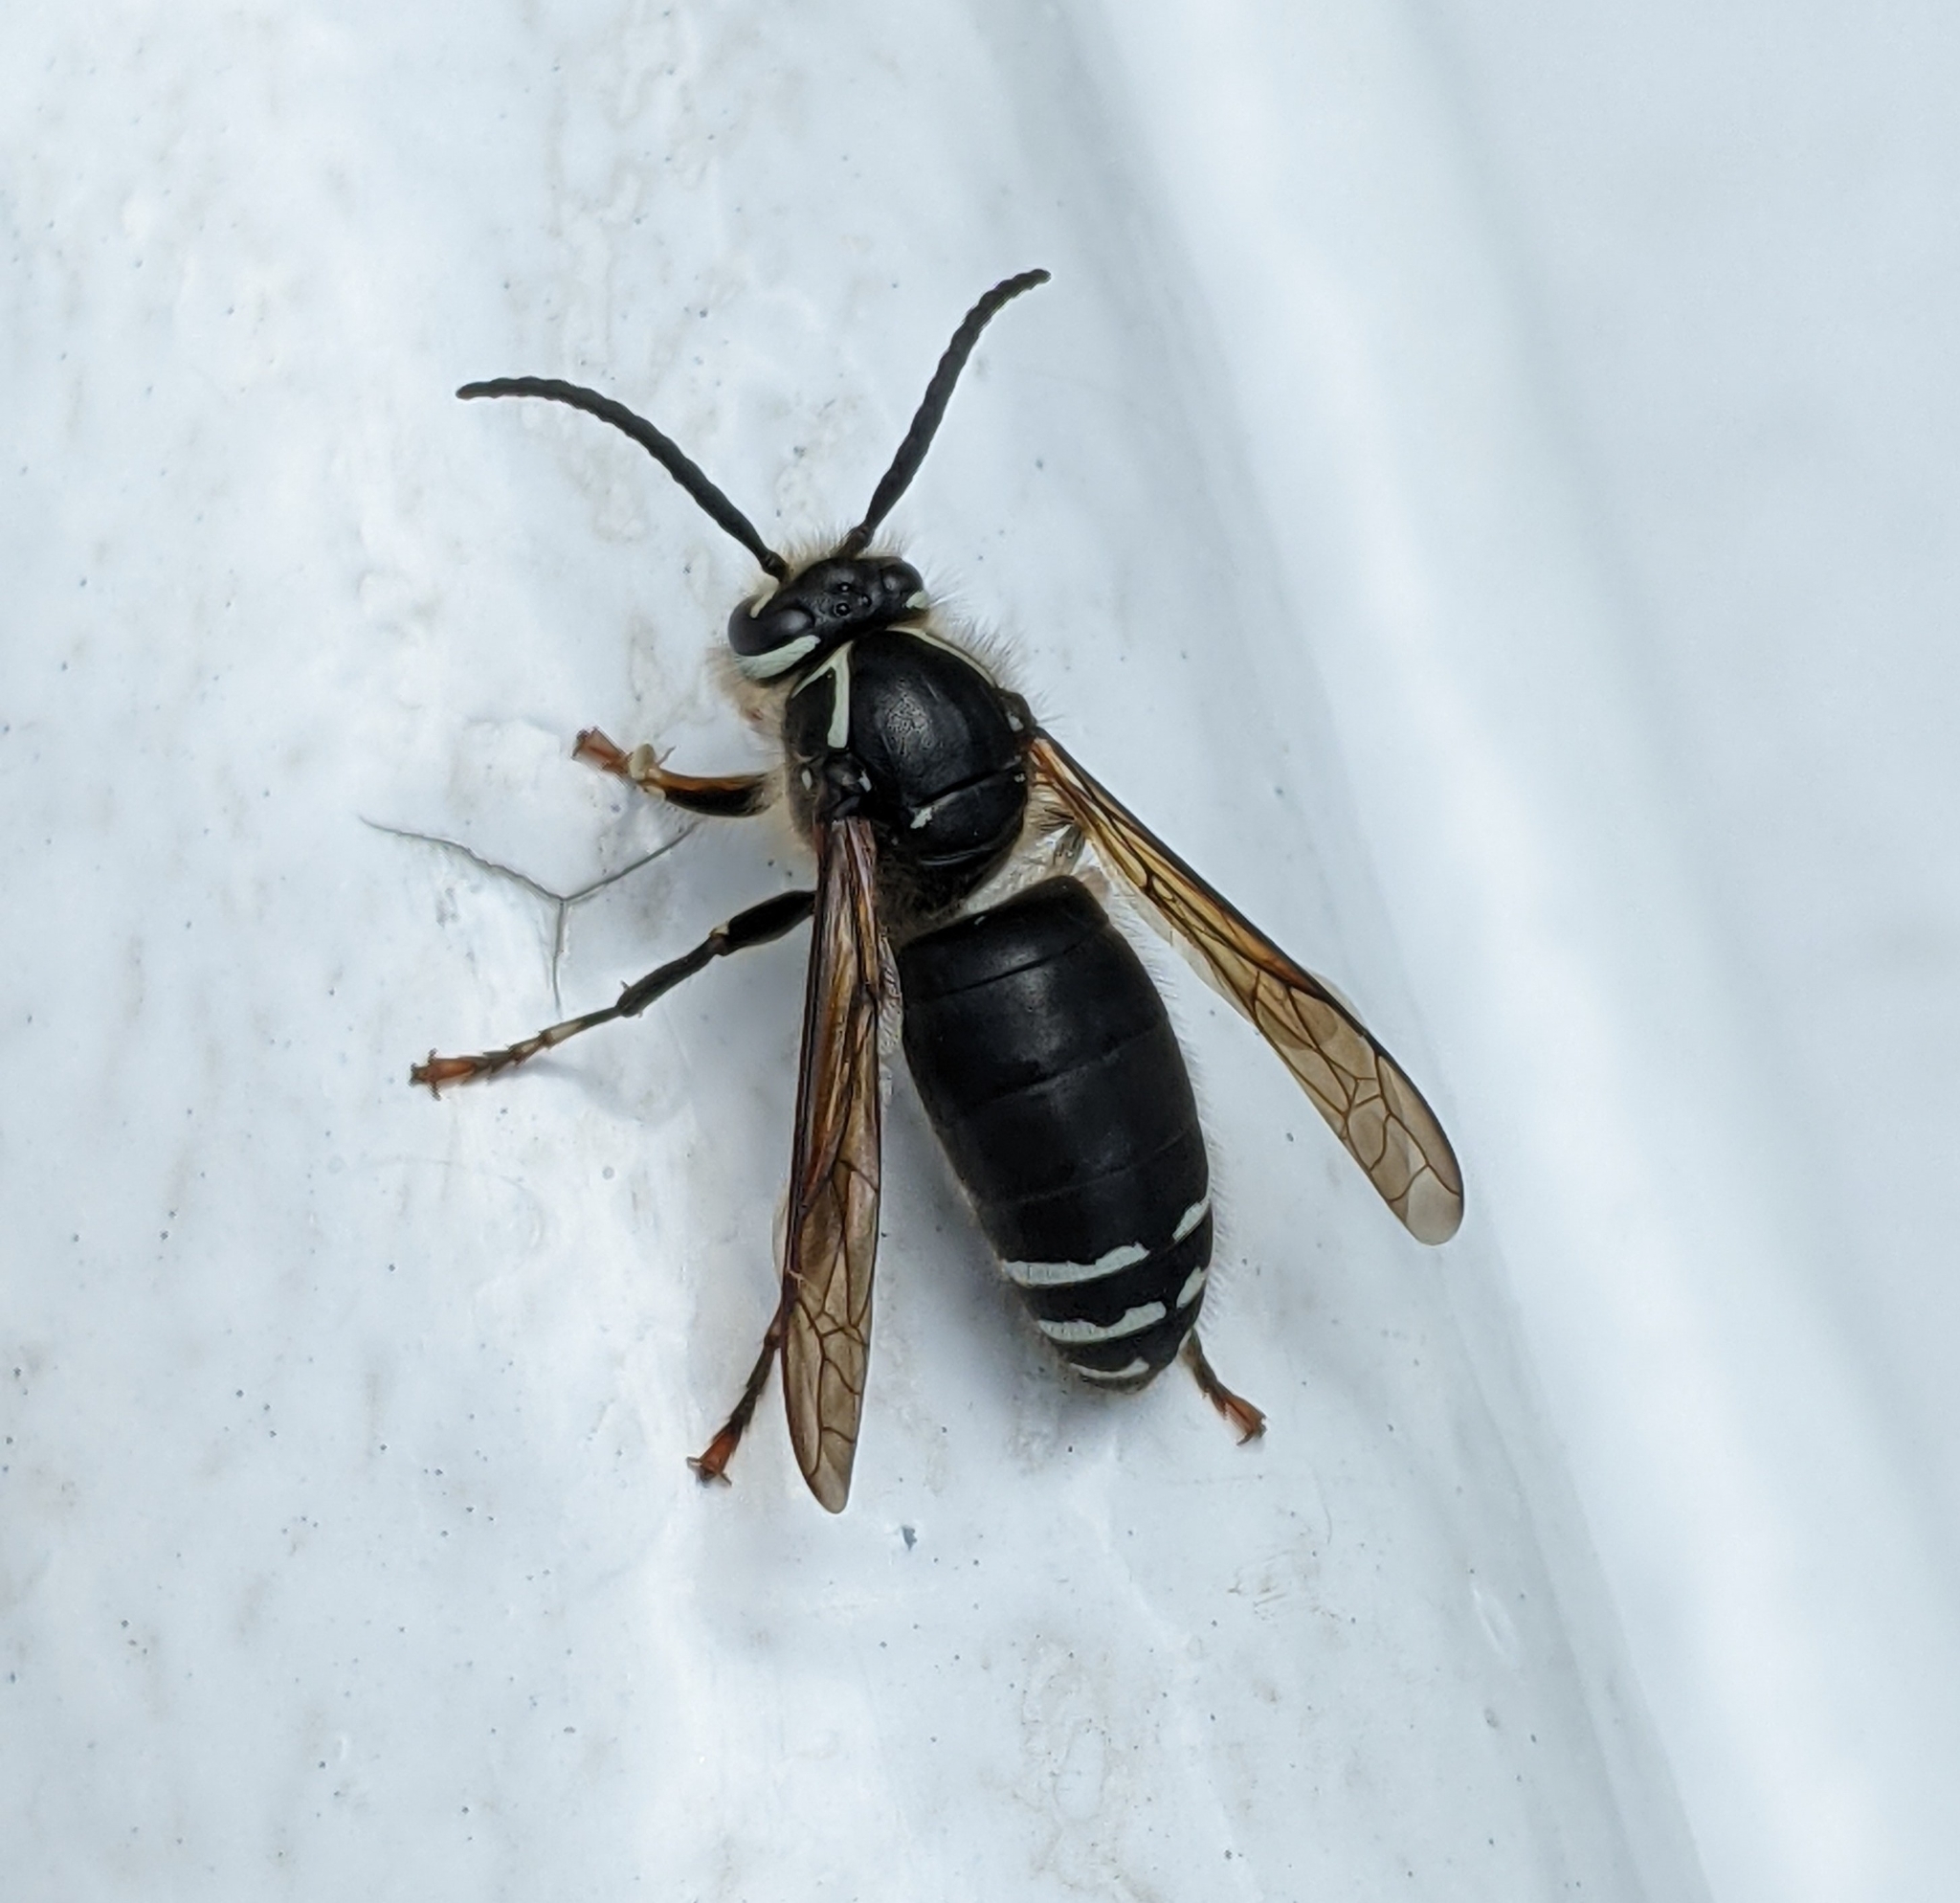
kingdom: Animalia
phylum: Arthropoda
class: Insecta
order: Hymenoptera
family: Vespidae
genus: Dolichovespula
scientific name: Dolichovespula maculata
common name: Bald-faced hornet
